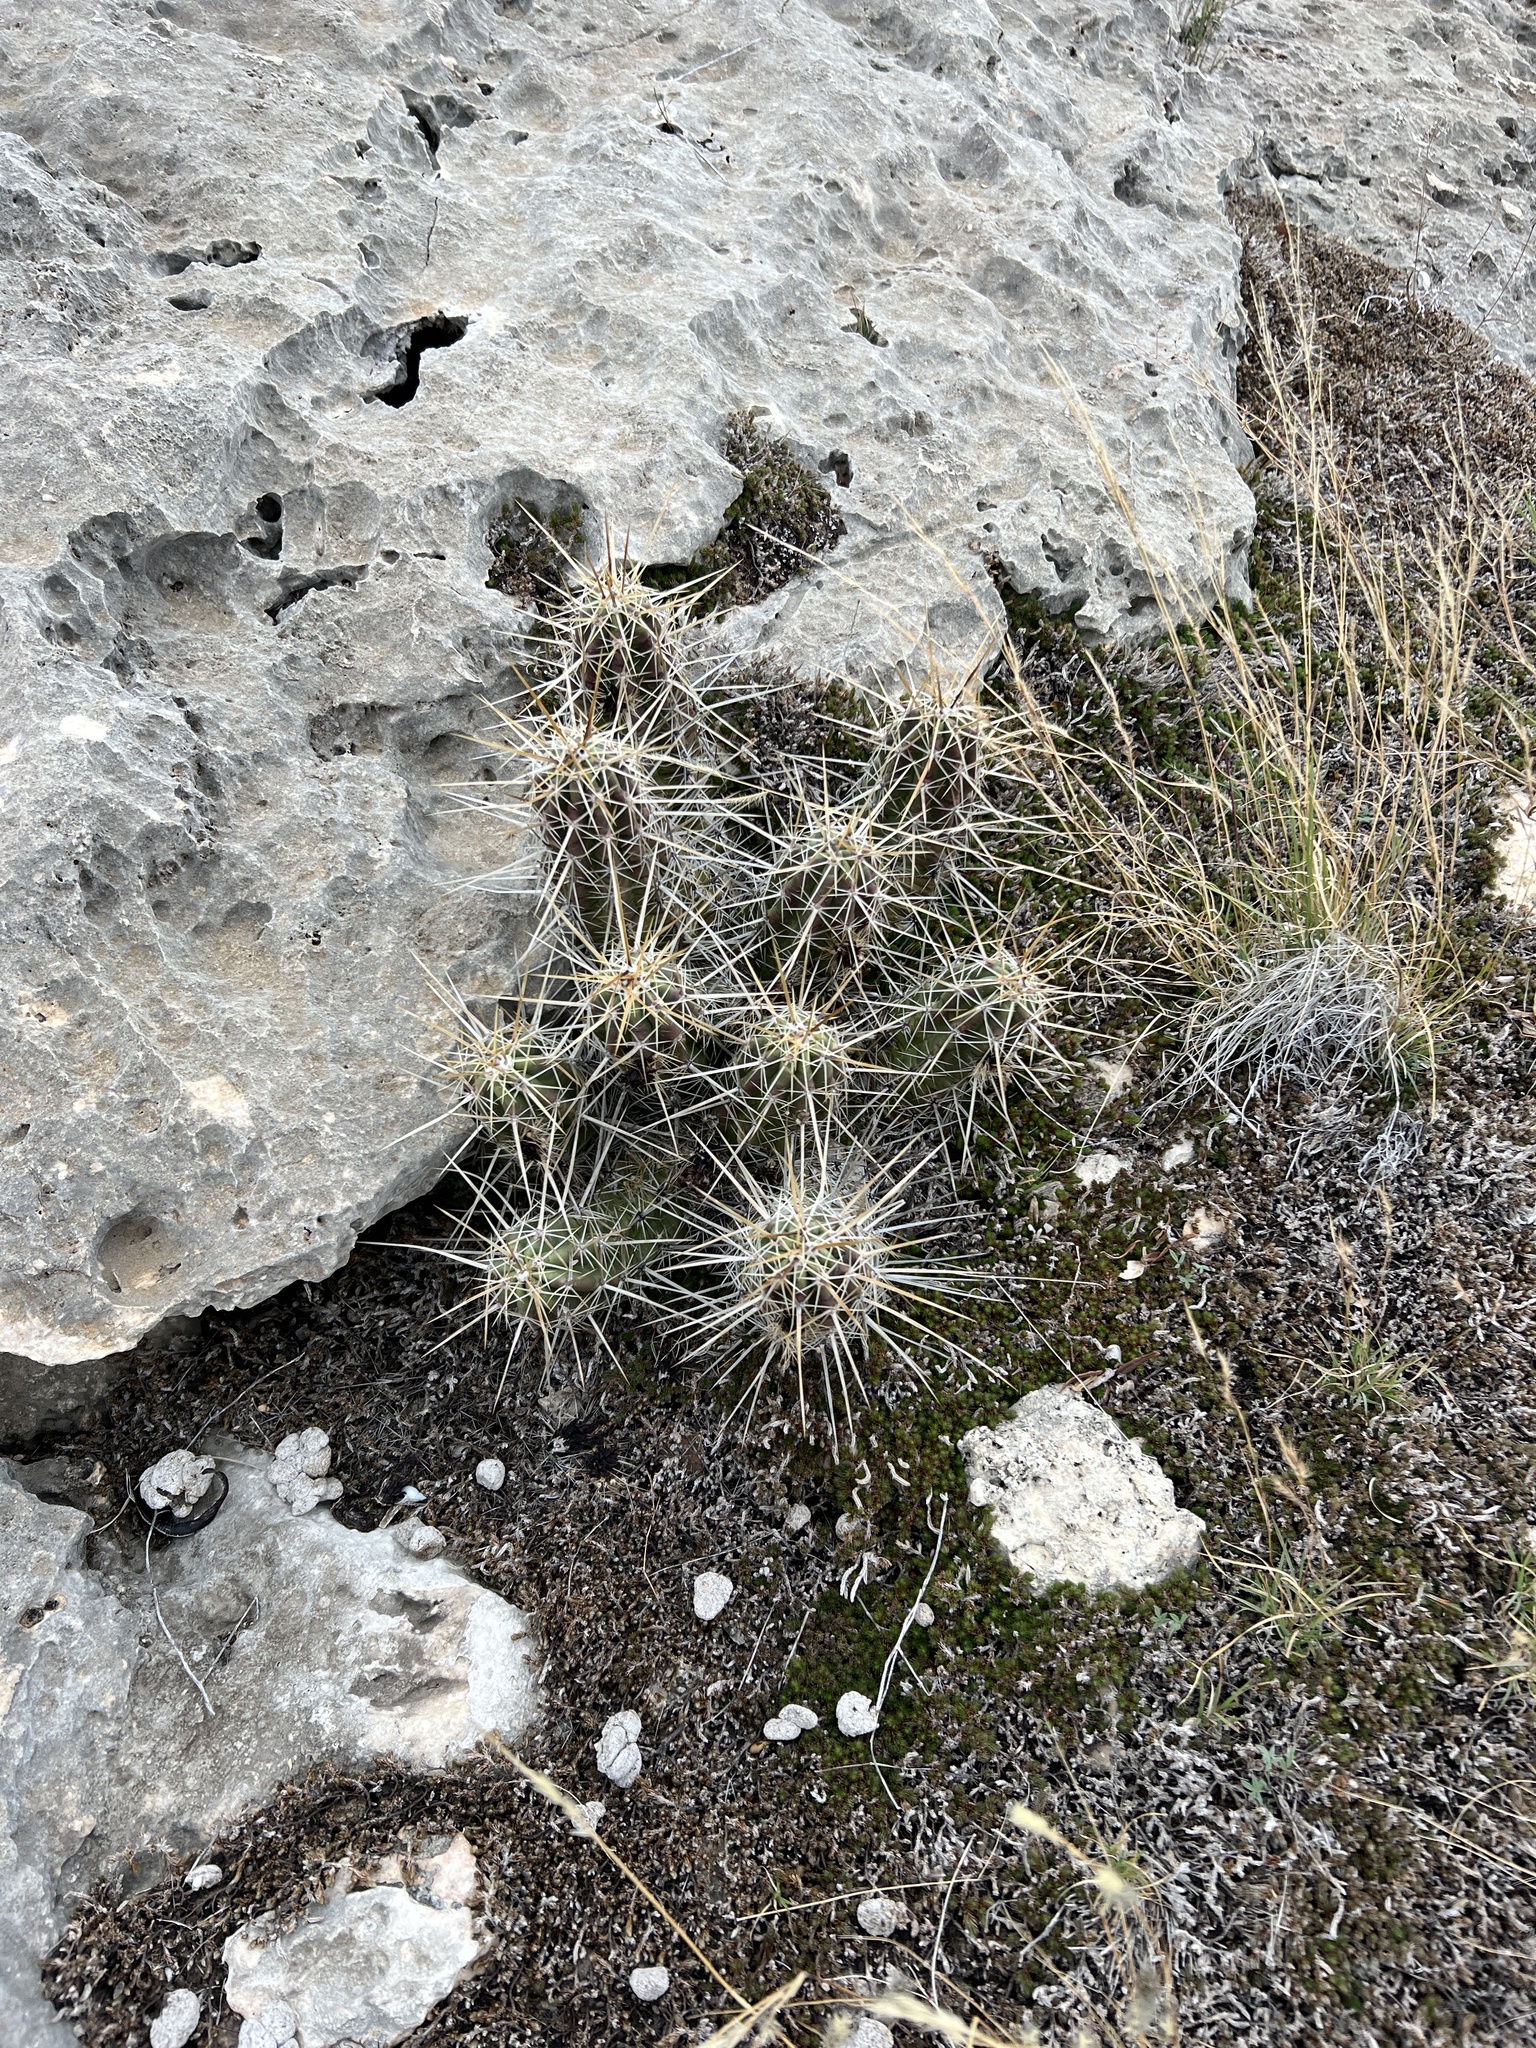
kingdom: Plantae
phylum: Tracheophyta
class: Magnoliopsida
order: Caryophyllales
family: Cactaceae
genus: Echinocereus
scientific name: Echinocereus enneacanthus
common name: Pitaya
